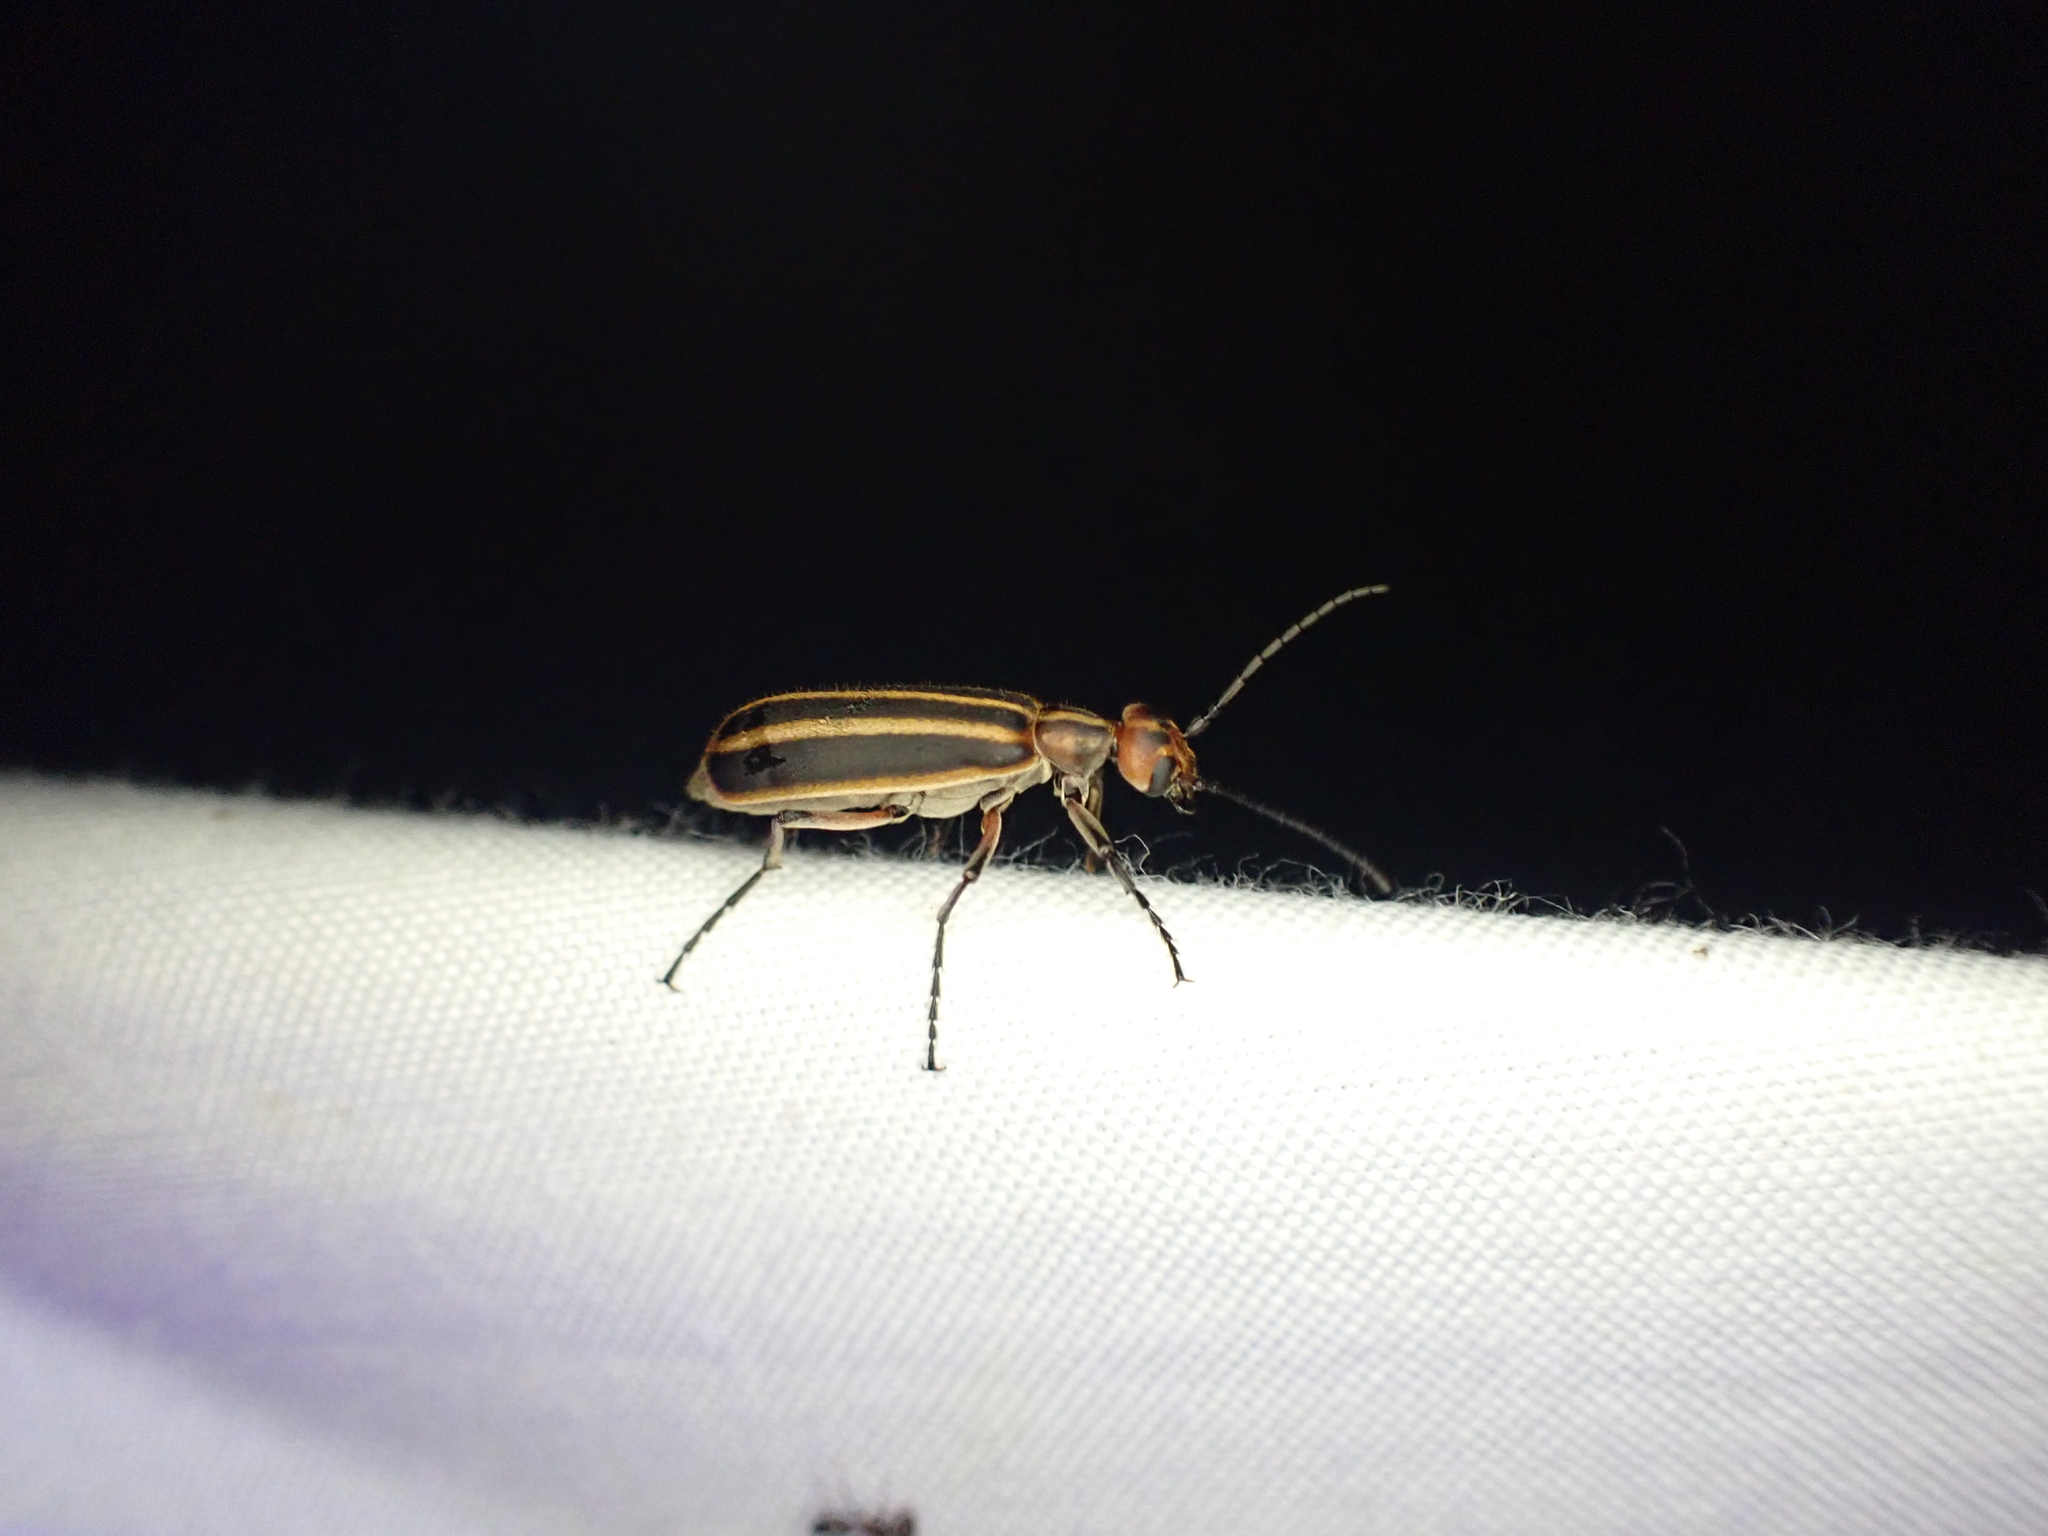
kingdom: Animalia
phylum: Arthropoda
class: Insecta
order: Coleoptera
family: Meloidae
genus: Epicauta
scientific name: Epicauta vittata
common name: Old-fashioned potato beetle
